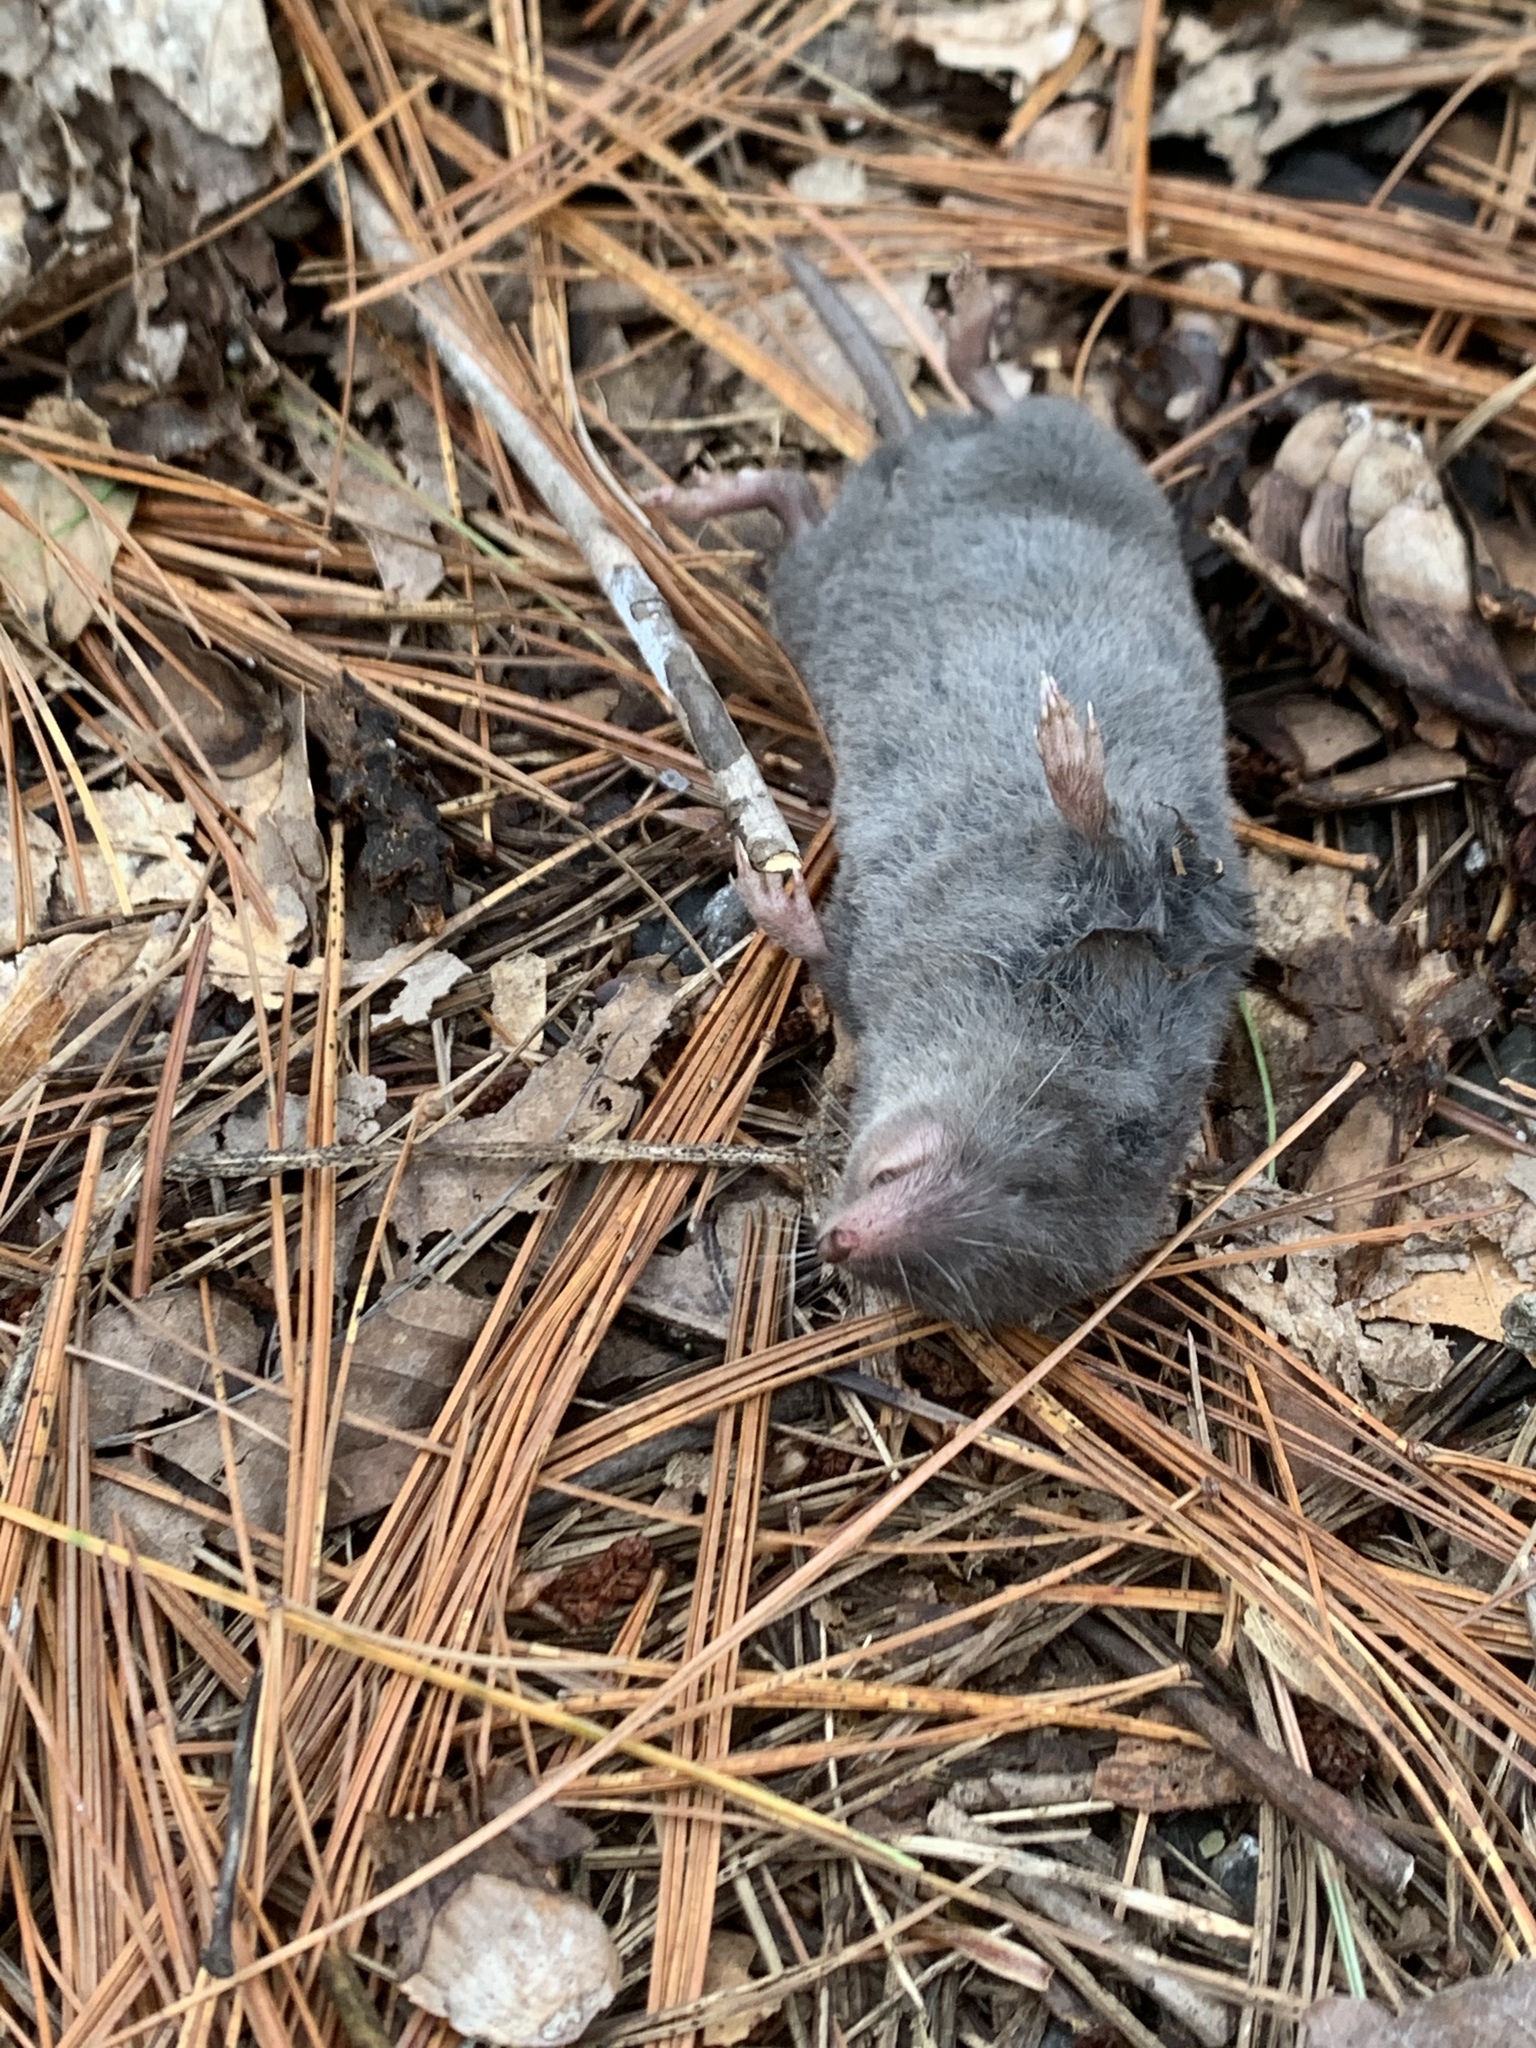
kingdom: Animalia
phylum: Chordata
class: Mammalia
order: Soricomorpha
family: Soricidae
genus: Blarina
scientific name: Blarina brevicauda
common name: Northern short-tailed shrew
